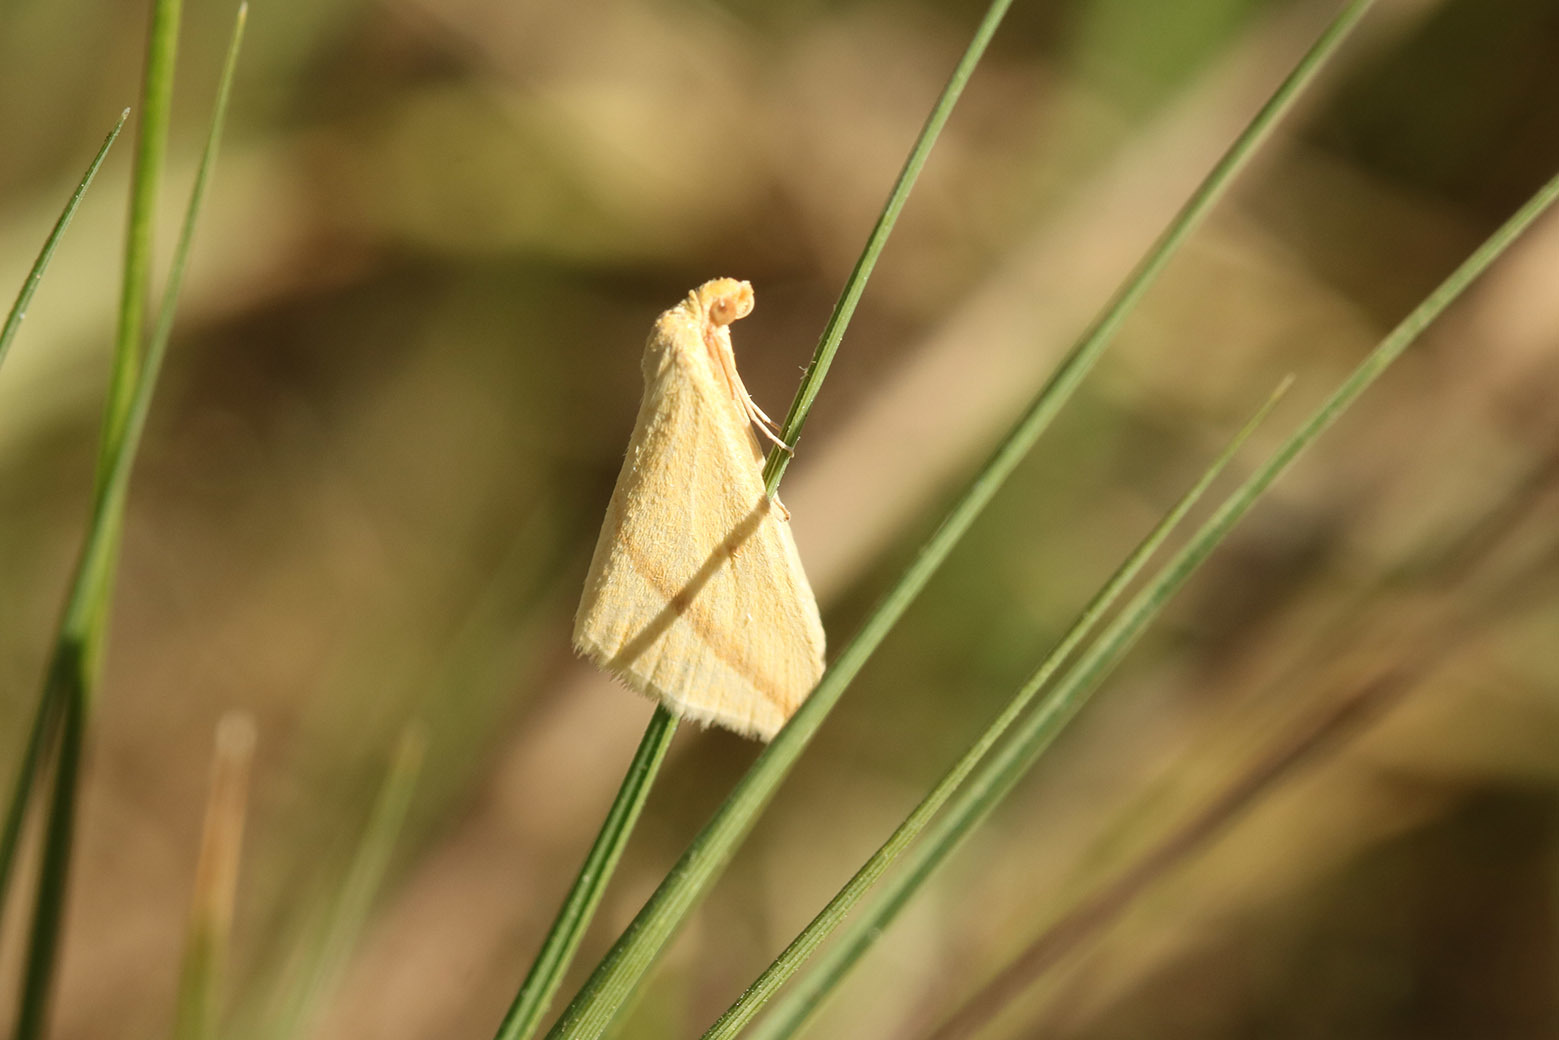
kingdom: Animalia
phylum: Arthropoda
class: Insecta
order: Lepidoptera
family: Geometridae
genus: Rhodometra
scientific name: Rhodometra sacraria
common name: Vestal
